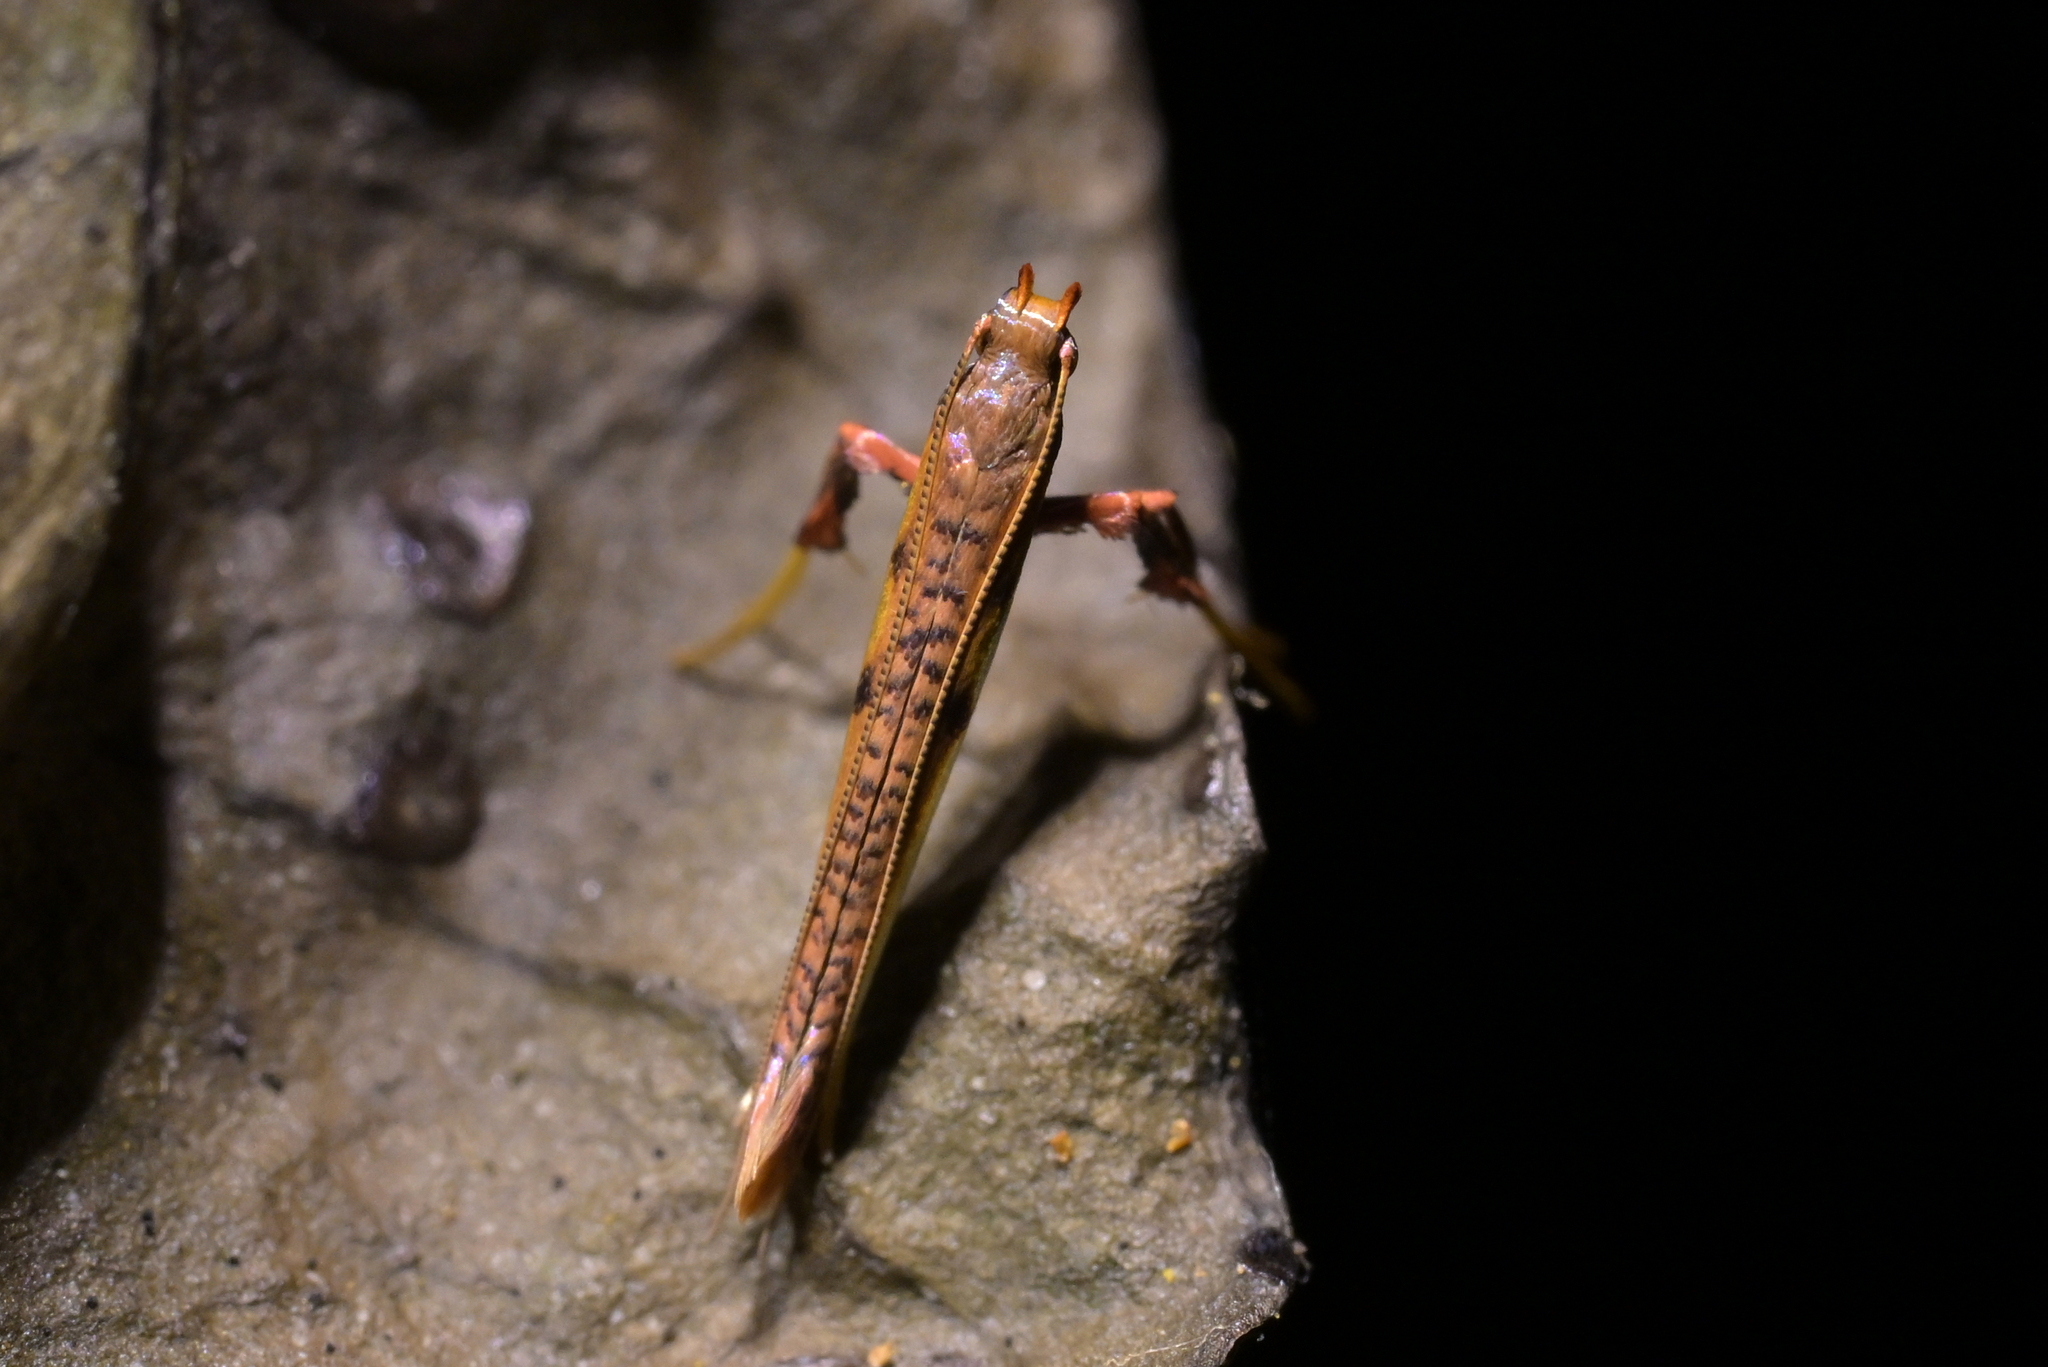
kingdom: Animalia
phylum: Arthropoda
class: Insecta
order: Lepidoptera
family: Gracillariidae
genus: Caloptilia
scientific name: Caloptilia chrysitis
